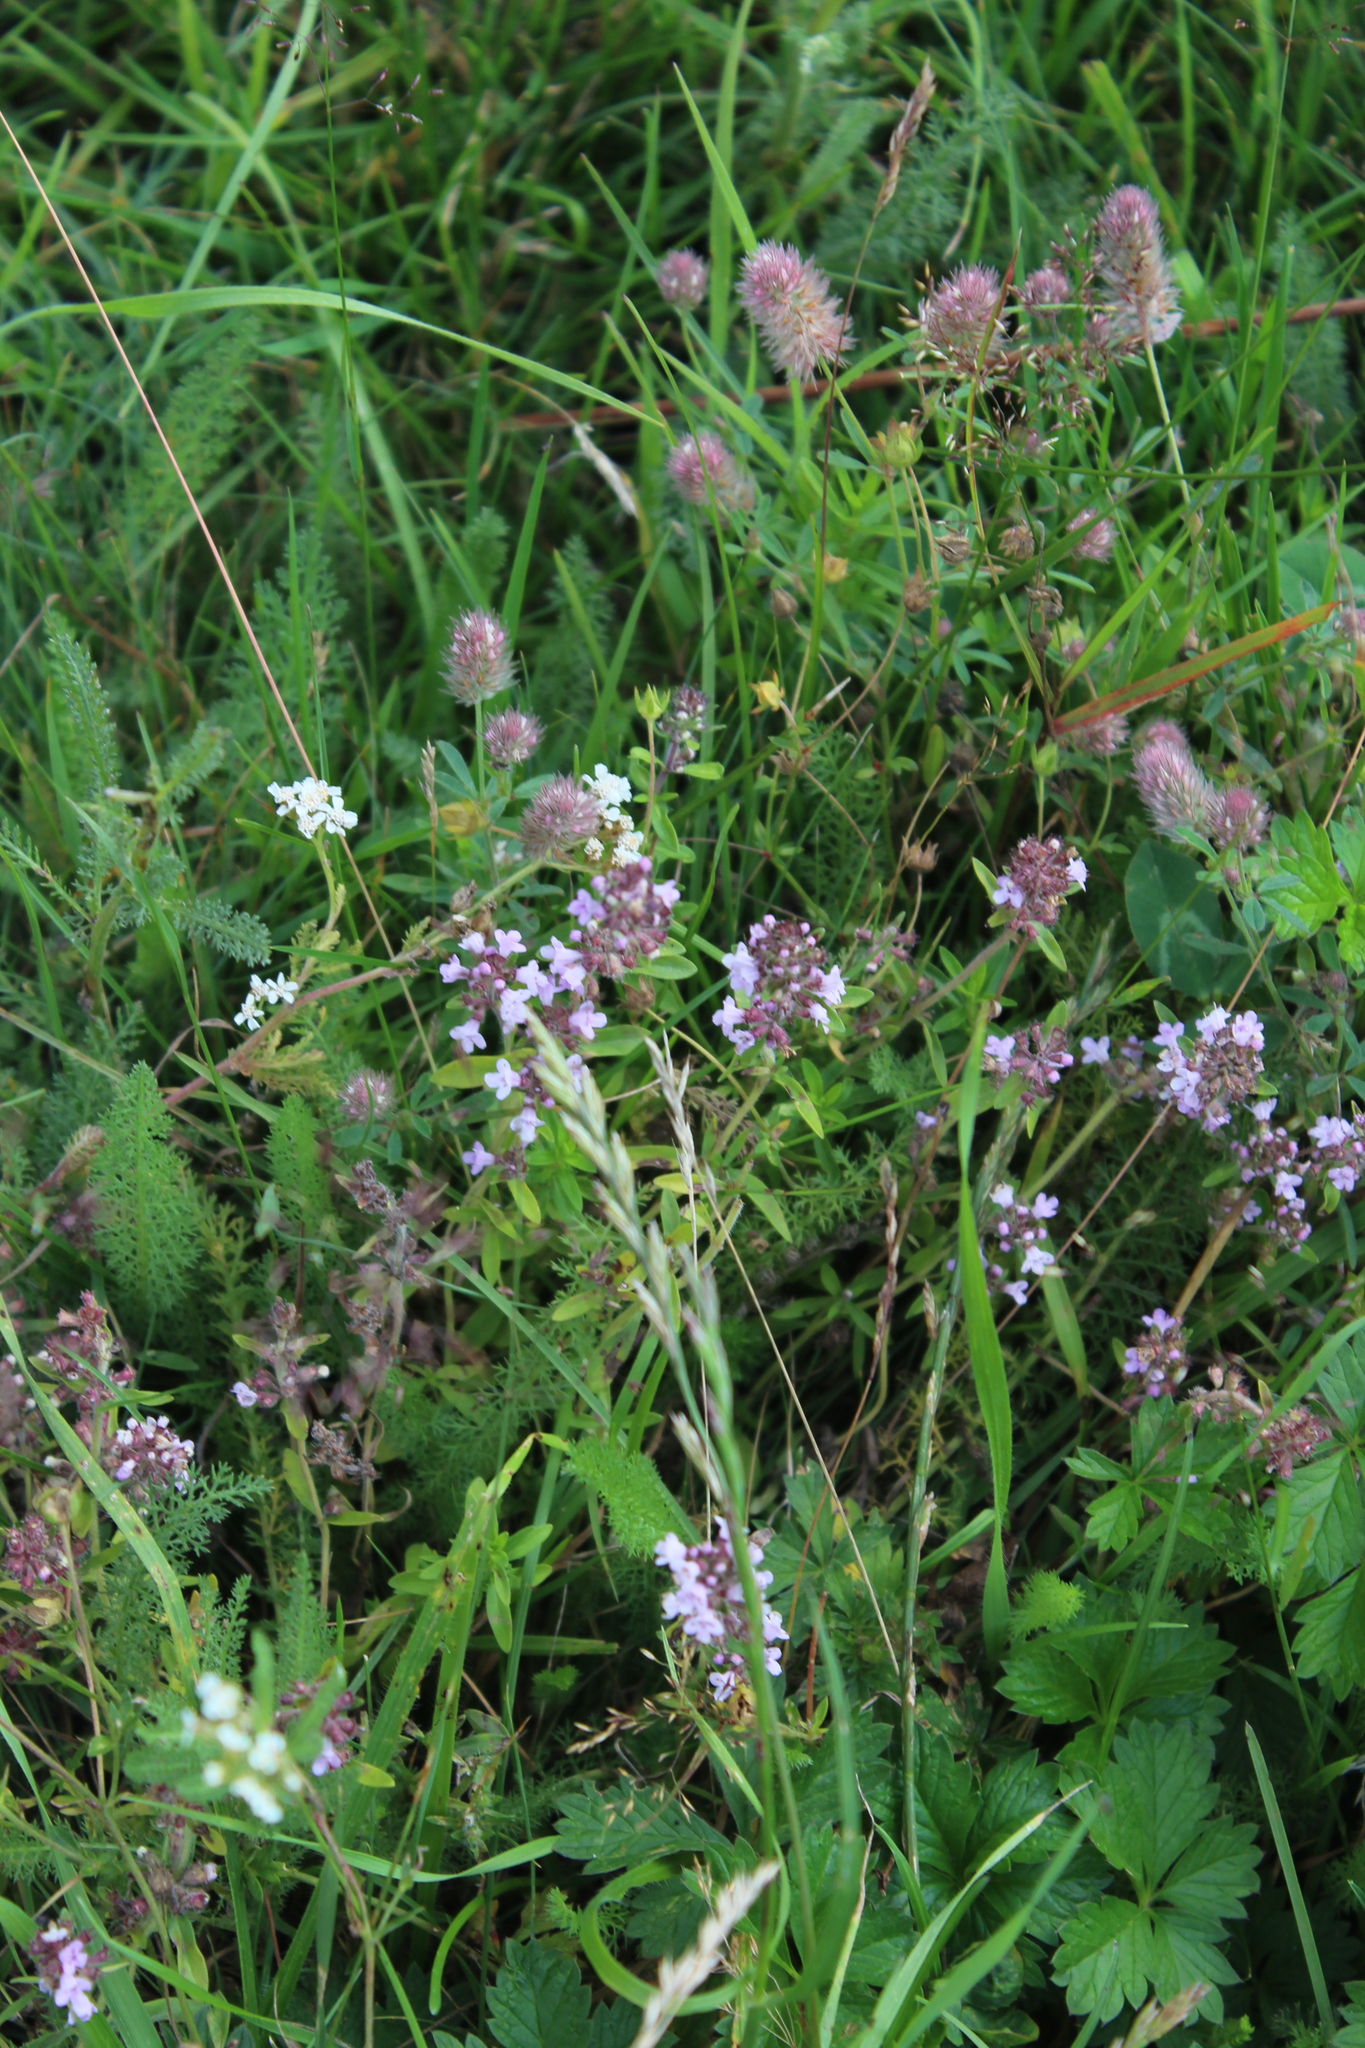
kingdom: Plantae
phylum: Tracheophyta
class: Magnoliopsida
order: Lamiales
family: Lamiaceae
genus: Thymus
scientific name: Thymus pannonicus
